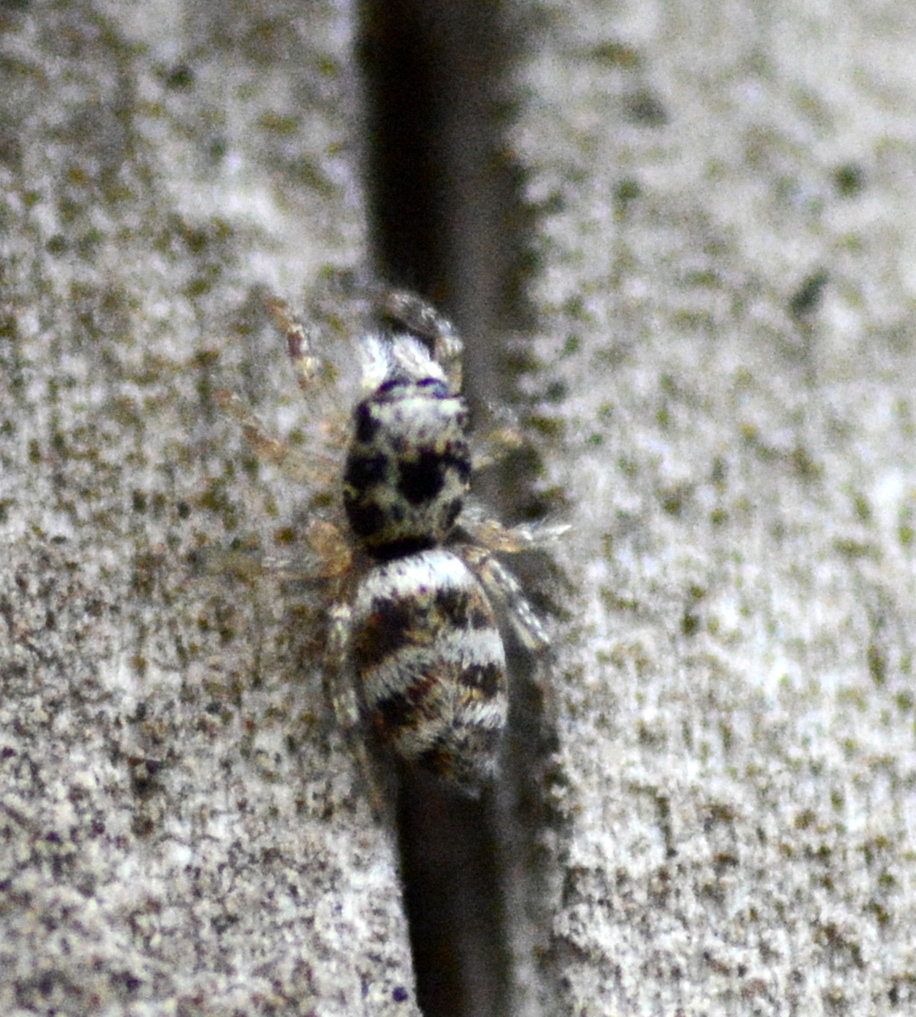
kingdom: Animalia
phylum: Arthropoda
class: Arachnida
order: Araneae
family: Salticidae
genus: Salticus
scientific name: Salticus scenicus
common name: Zebra jumper
